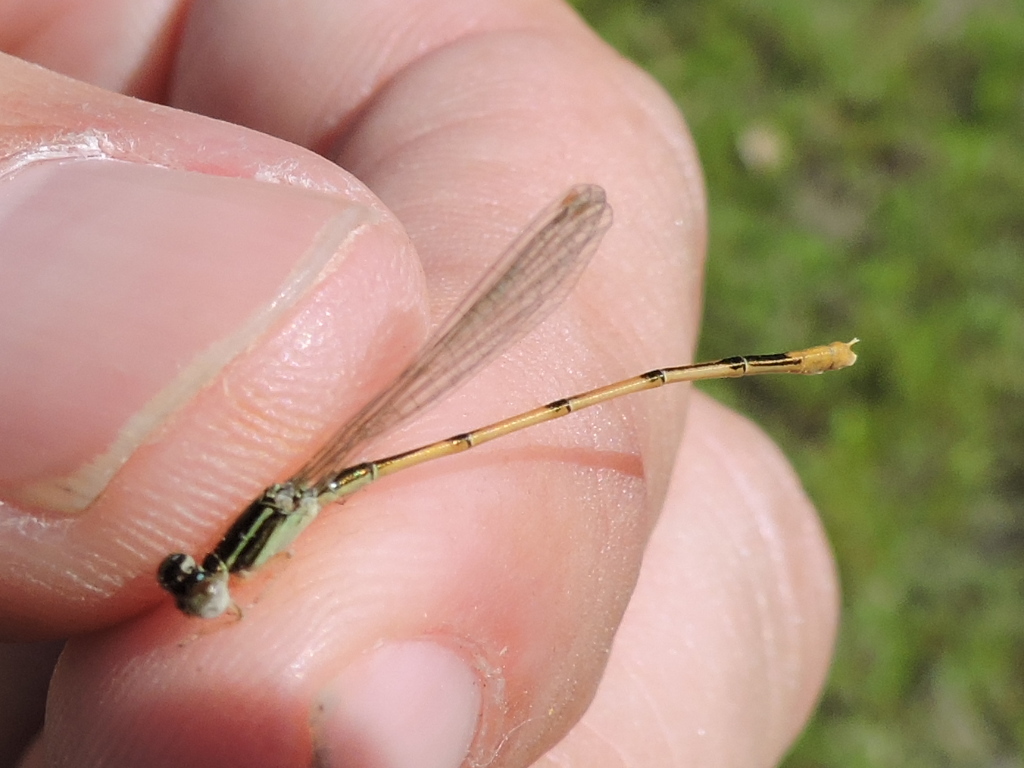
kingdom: Animalia
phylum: Arthropoda
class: Insecta
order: Odonata
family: Coenagrionidae
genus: Ischnura
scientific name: Ischnura hastata
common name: Citrine forktail
